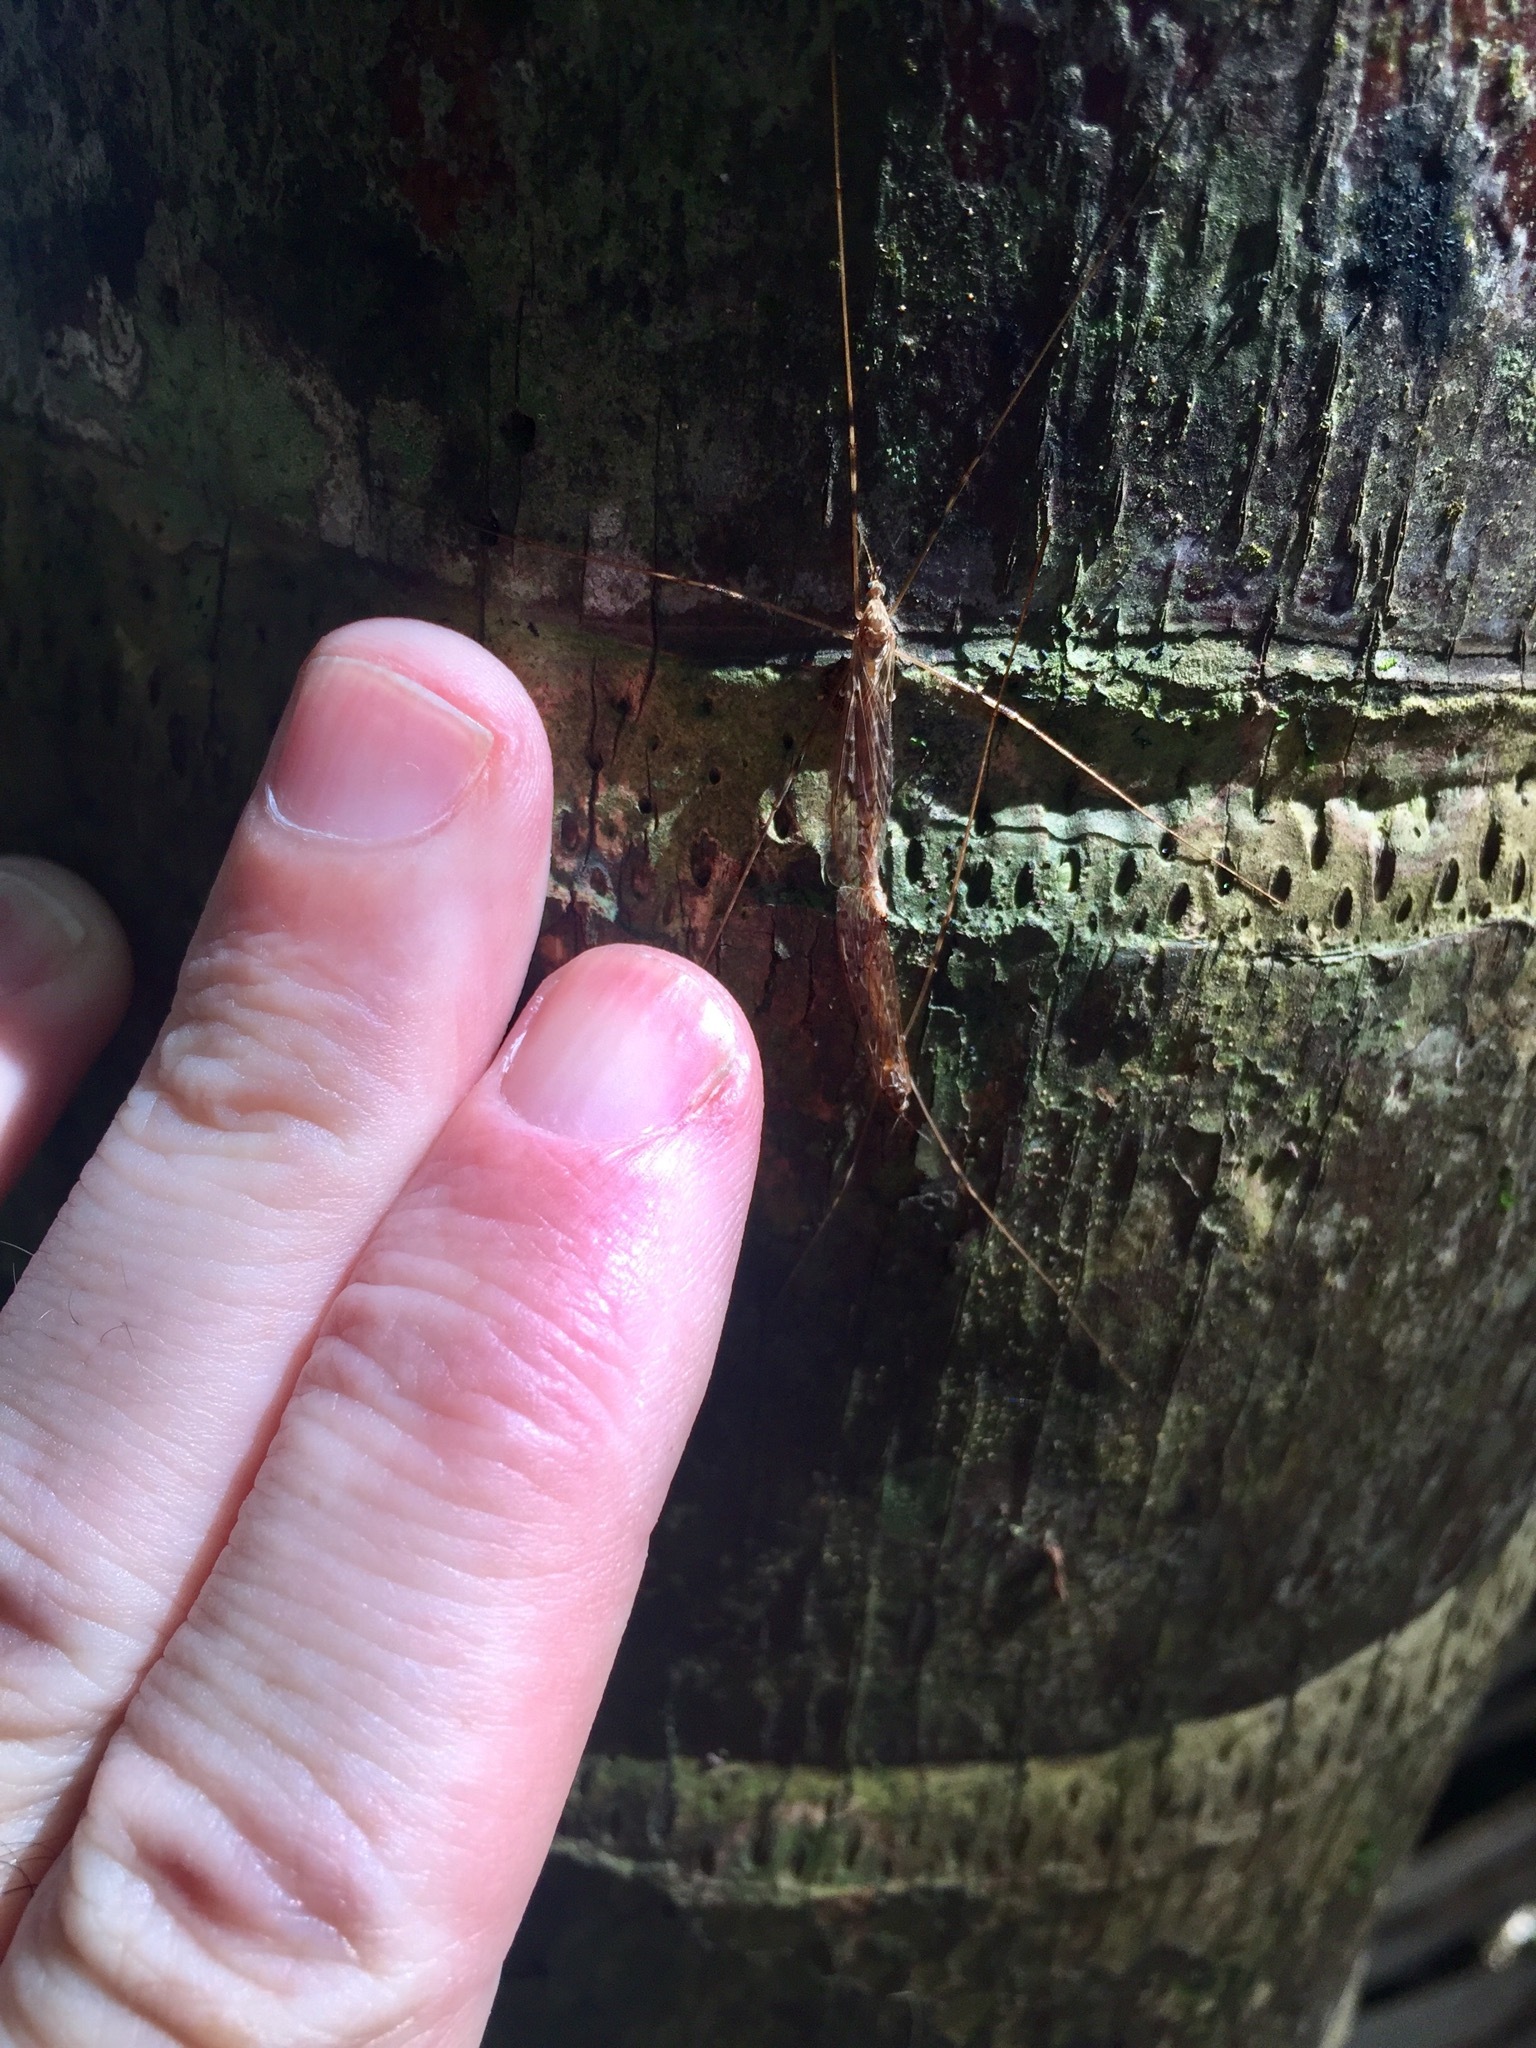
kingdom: Animalia
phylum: Arthropoda
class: Insecta
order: Diptera
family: Limoniidae
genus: Austrolimnophila
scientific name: Austrolimnophila crassipes
